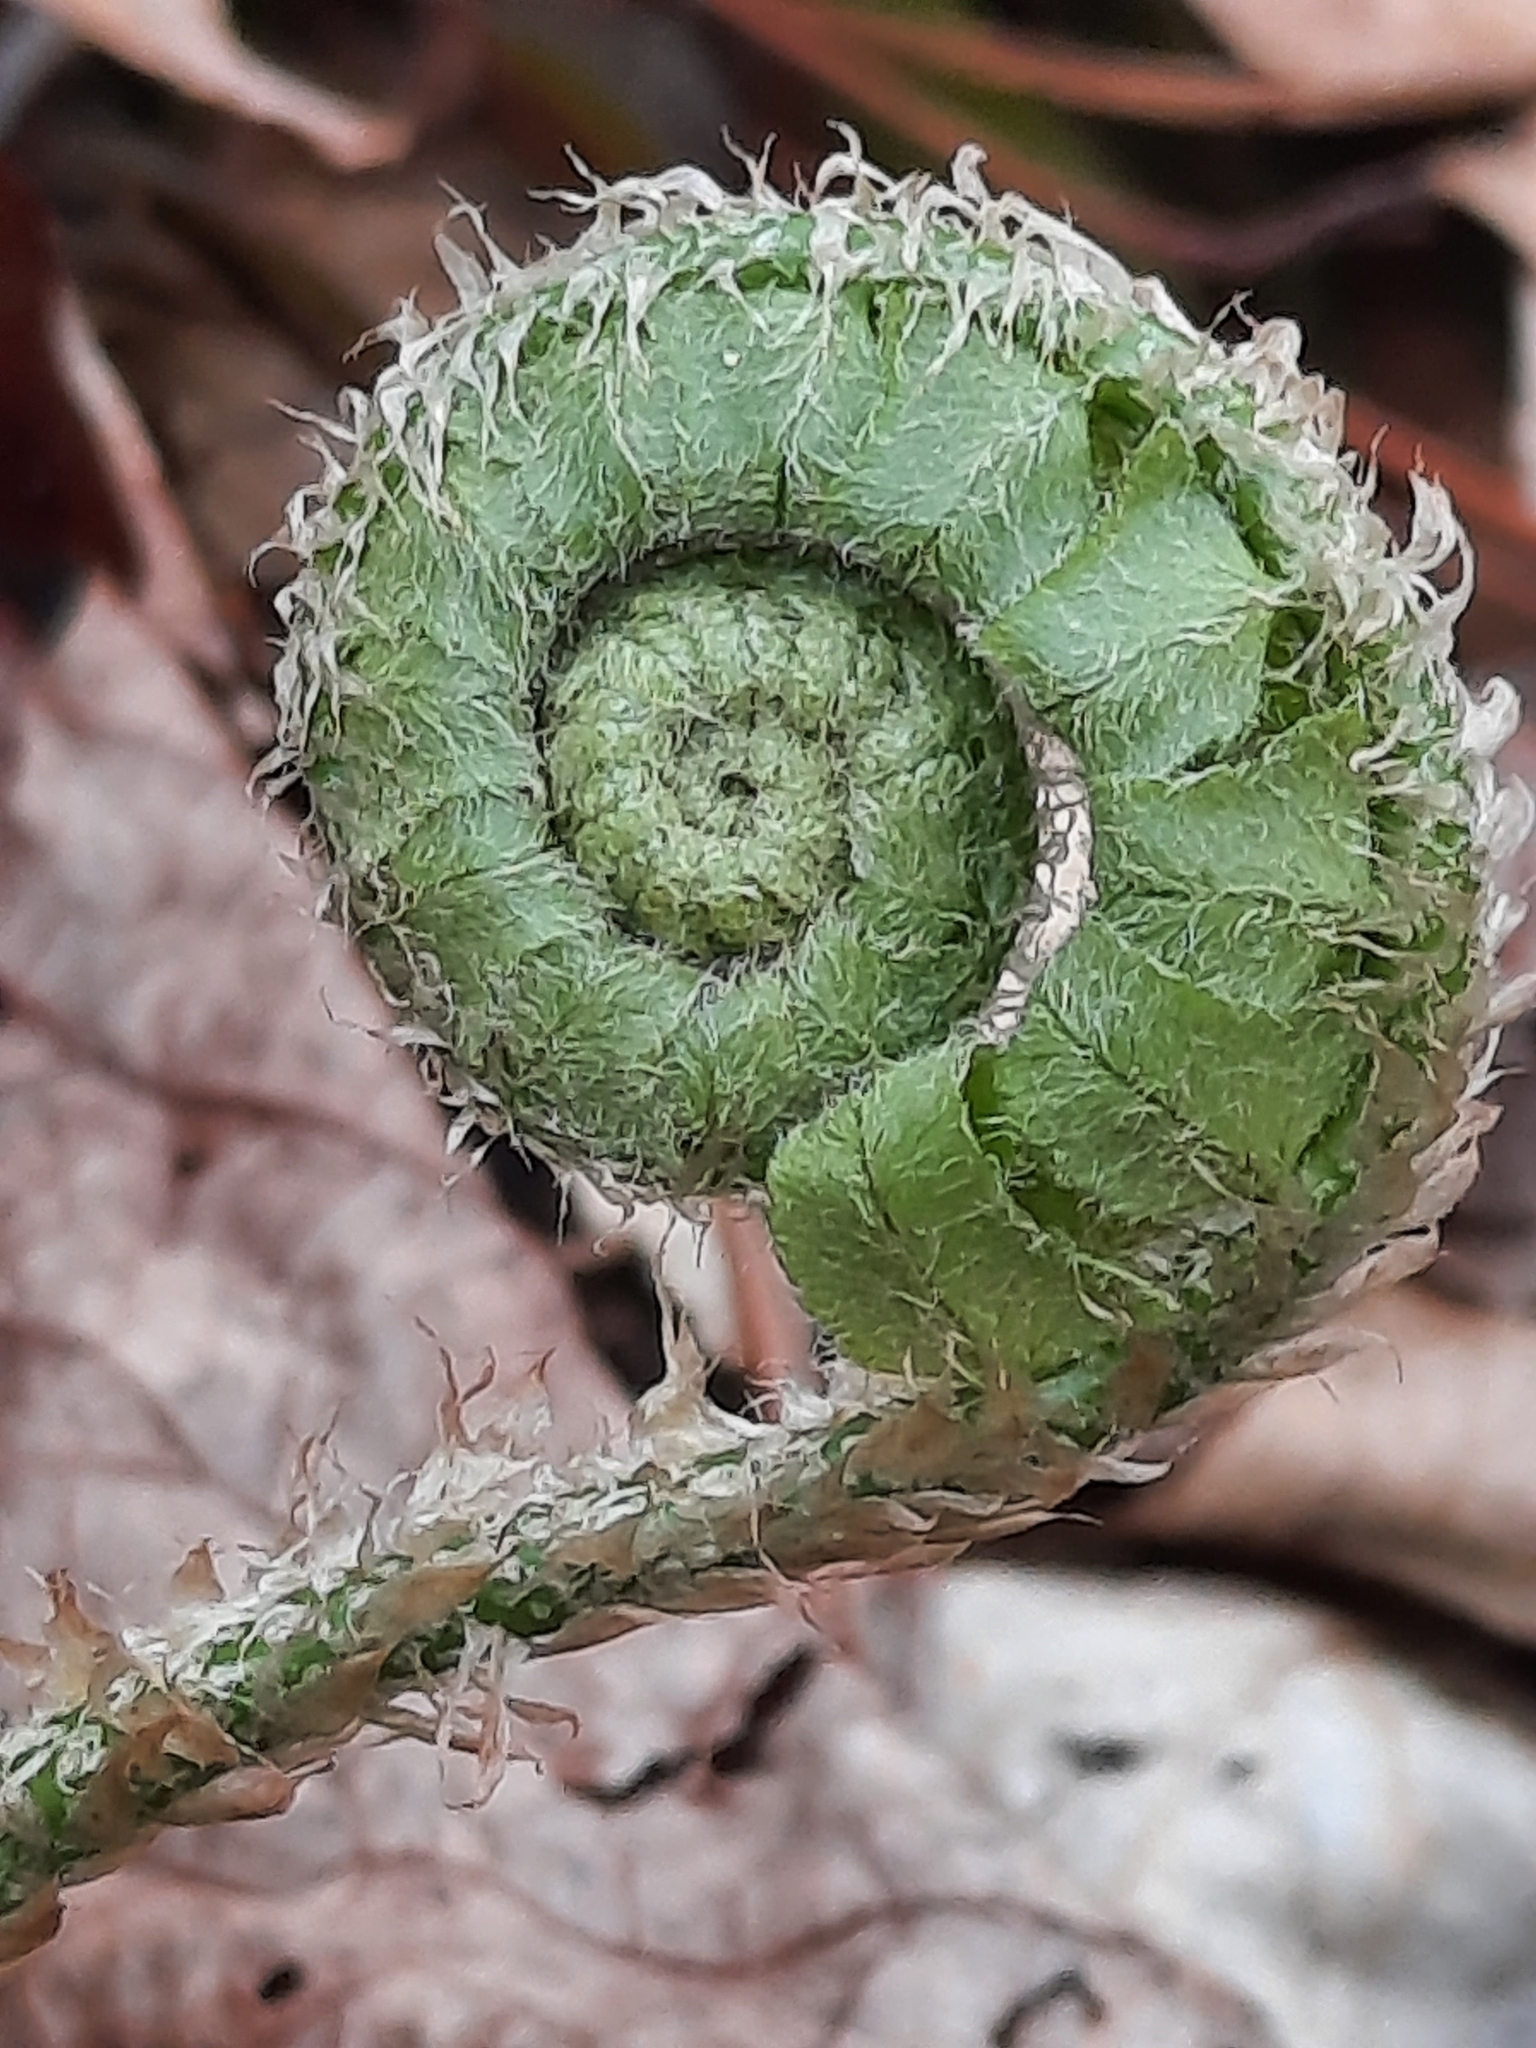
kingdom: Plantae
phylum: Tracheophyta
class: Polypodiopsida
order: Polypodiales
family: Dryopteridaceae
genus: Polystichum
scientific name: Polystichum acrostichoides
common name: Christmas fern
